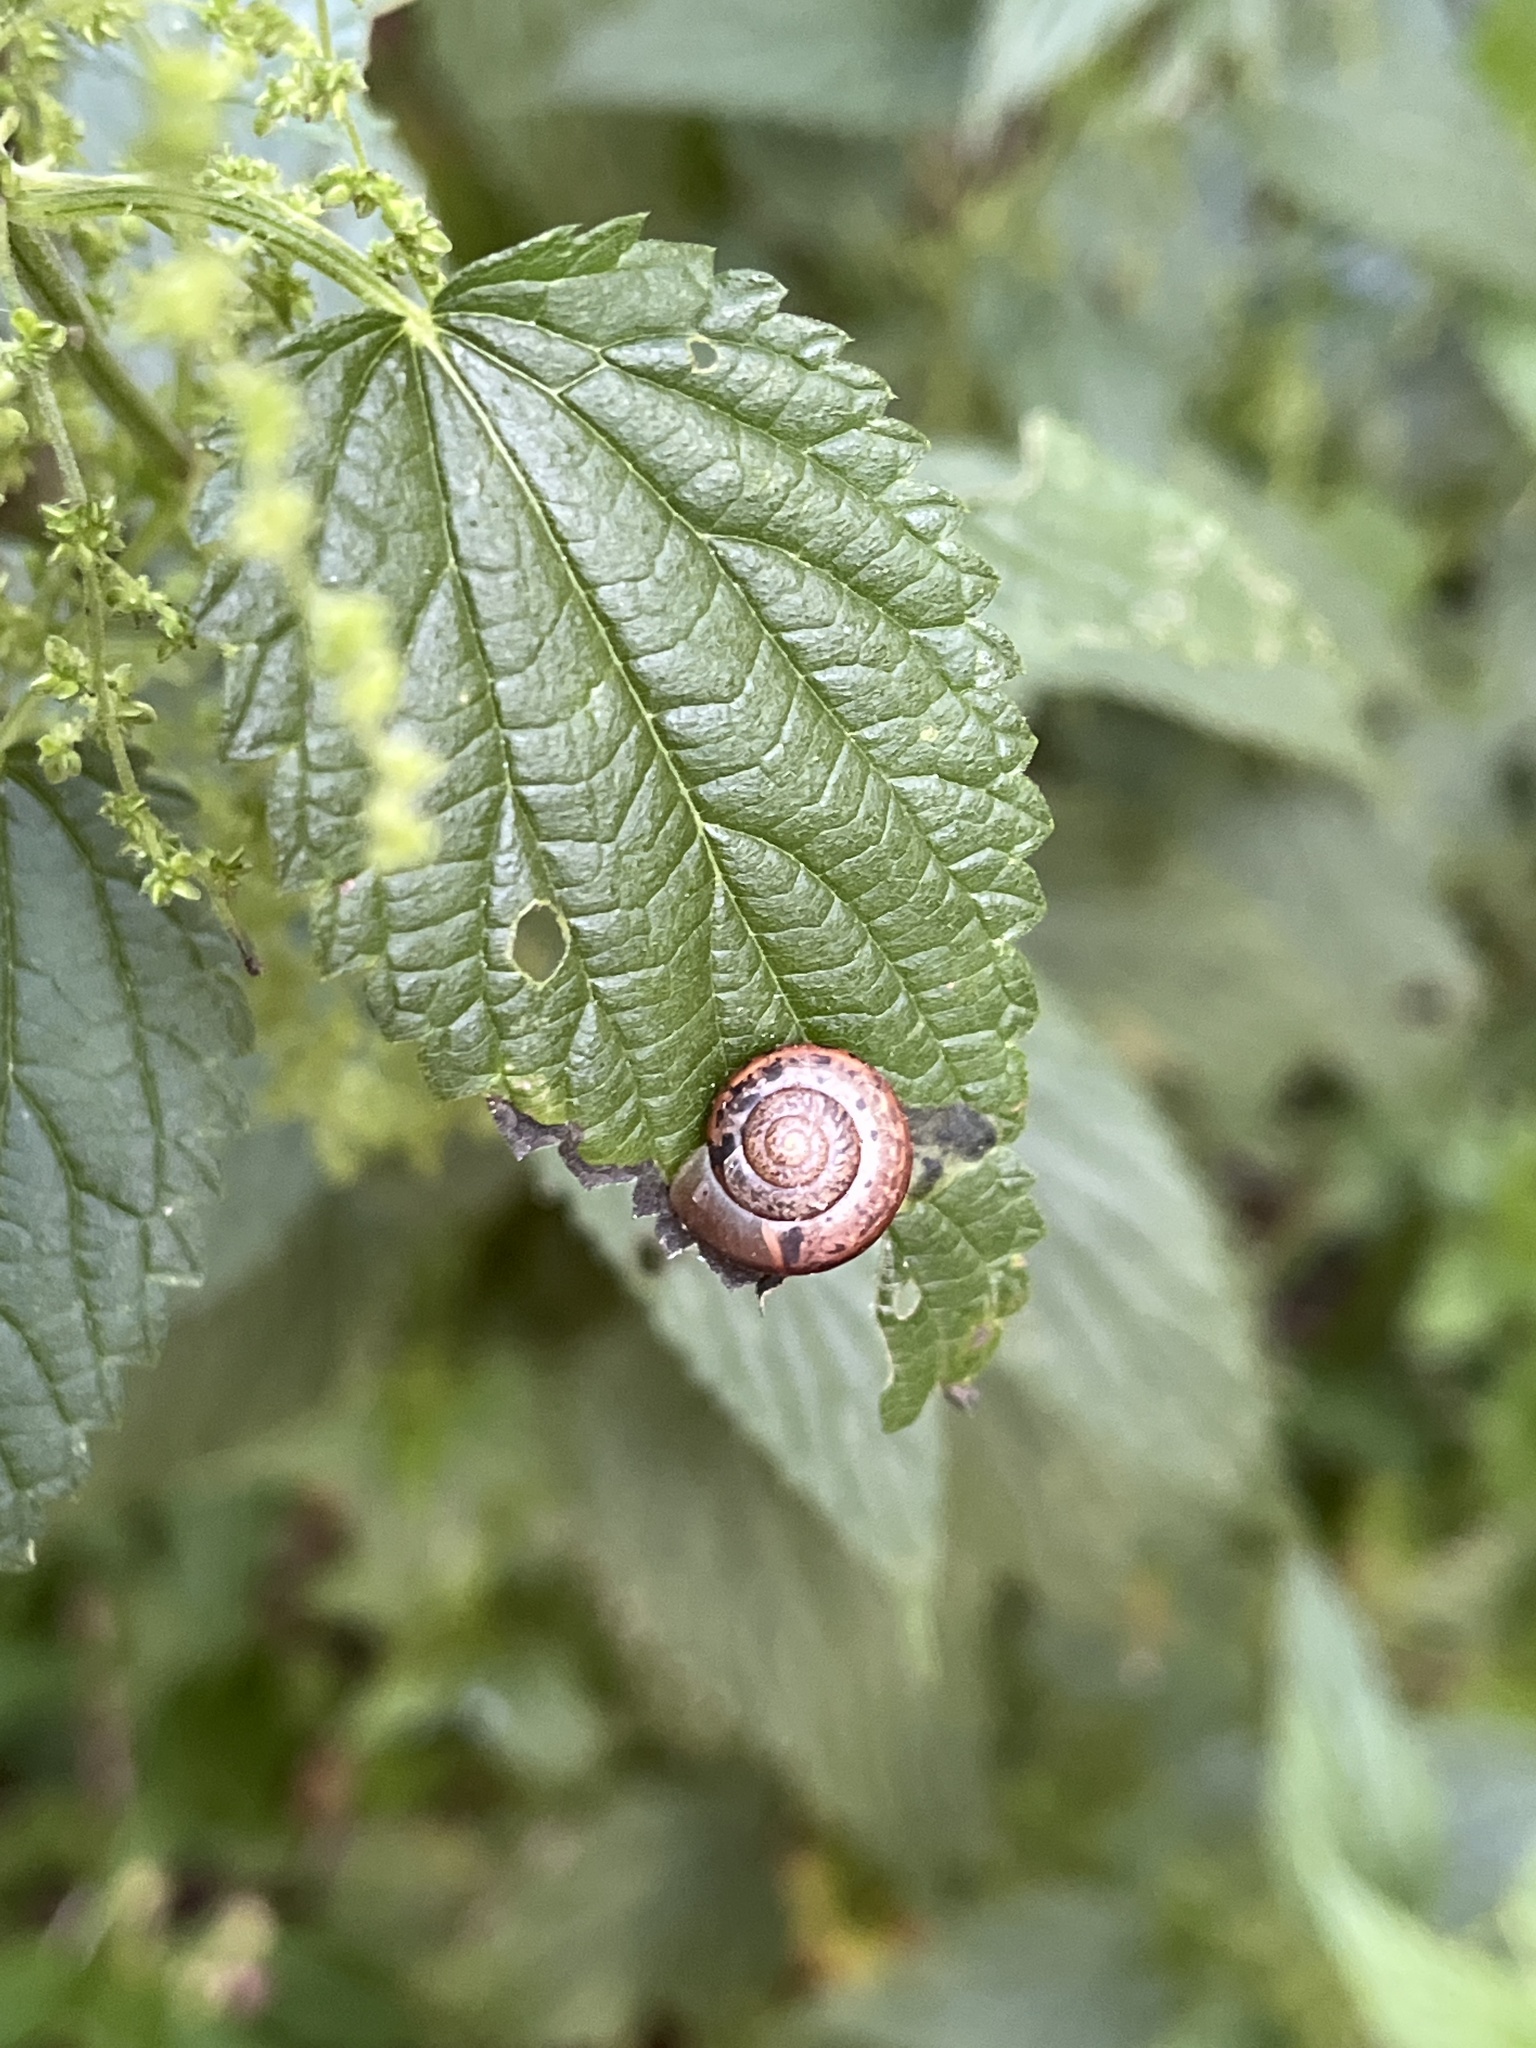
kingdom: Animalia
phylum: Mollusca
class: Gastropoda
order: Stylommatophora
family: Camaenidae
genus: Fruticicola
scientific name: Fruticicola fruticum
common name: Bush snail
